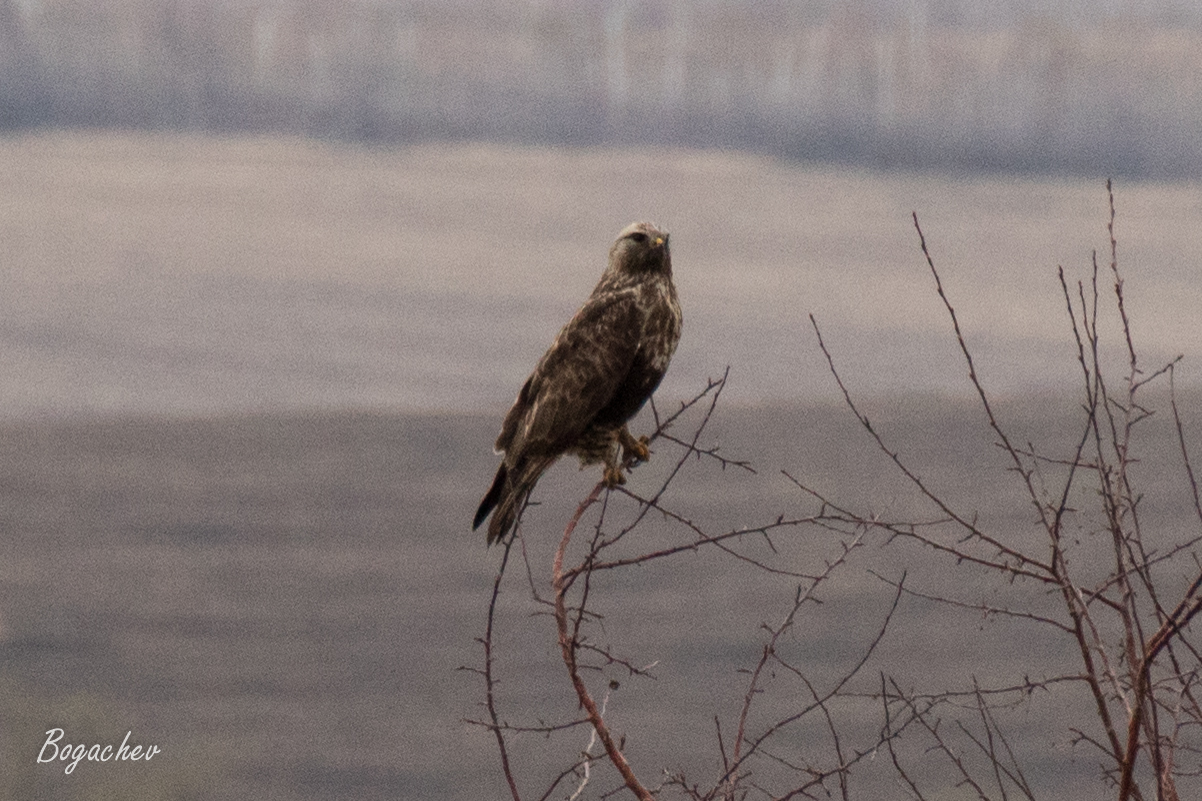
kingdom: Animalia
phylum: Chordata
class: Aves
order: Accipitriformes
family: Accipitridae
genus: Buteo
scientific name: Buteo lagopus
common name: Rough-legged buzzard
